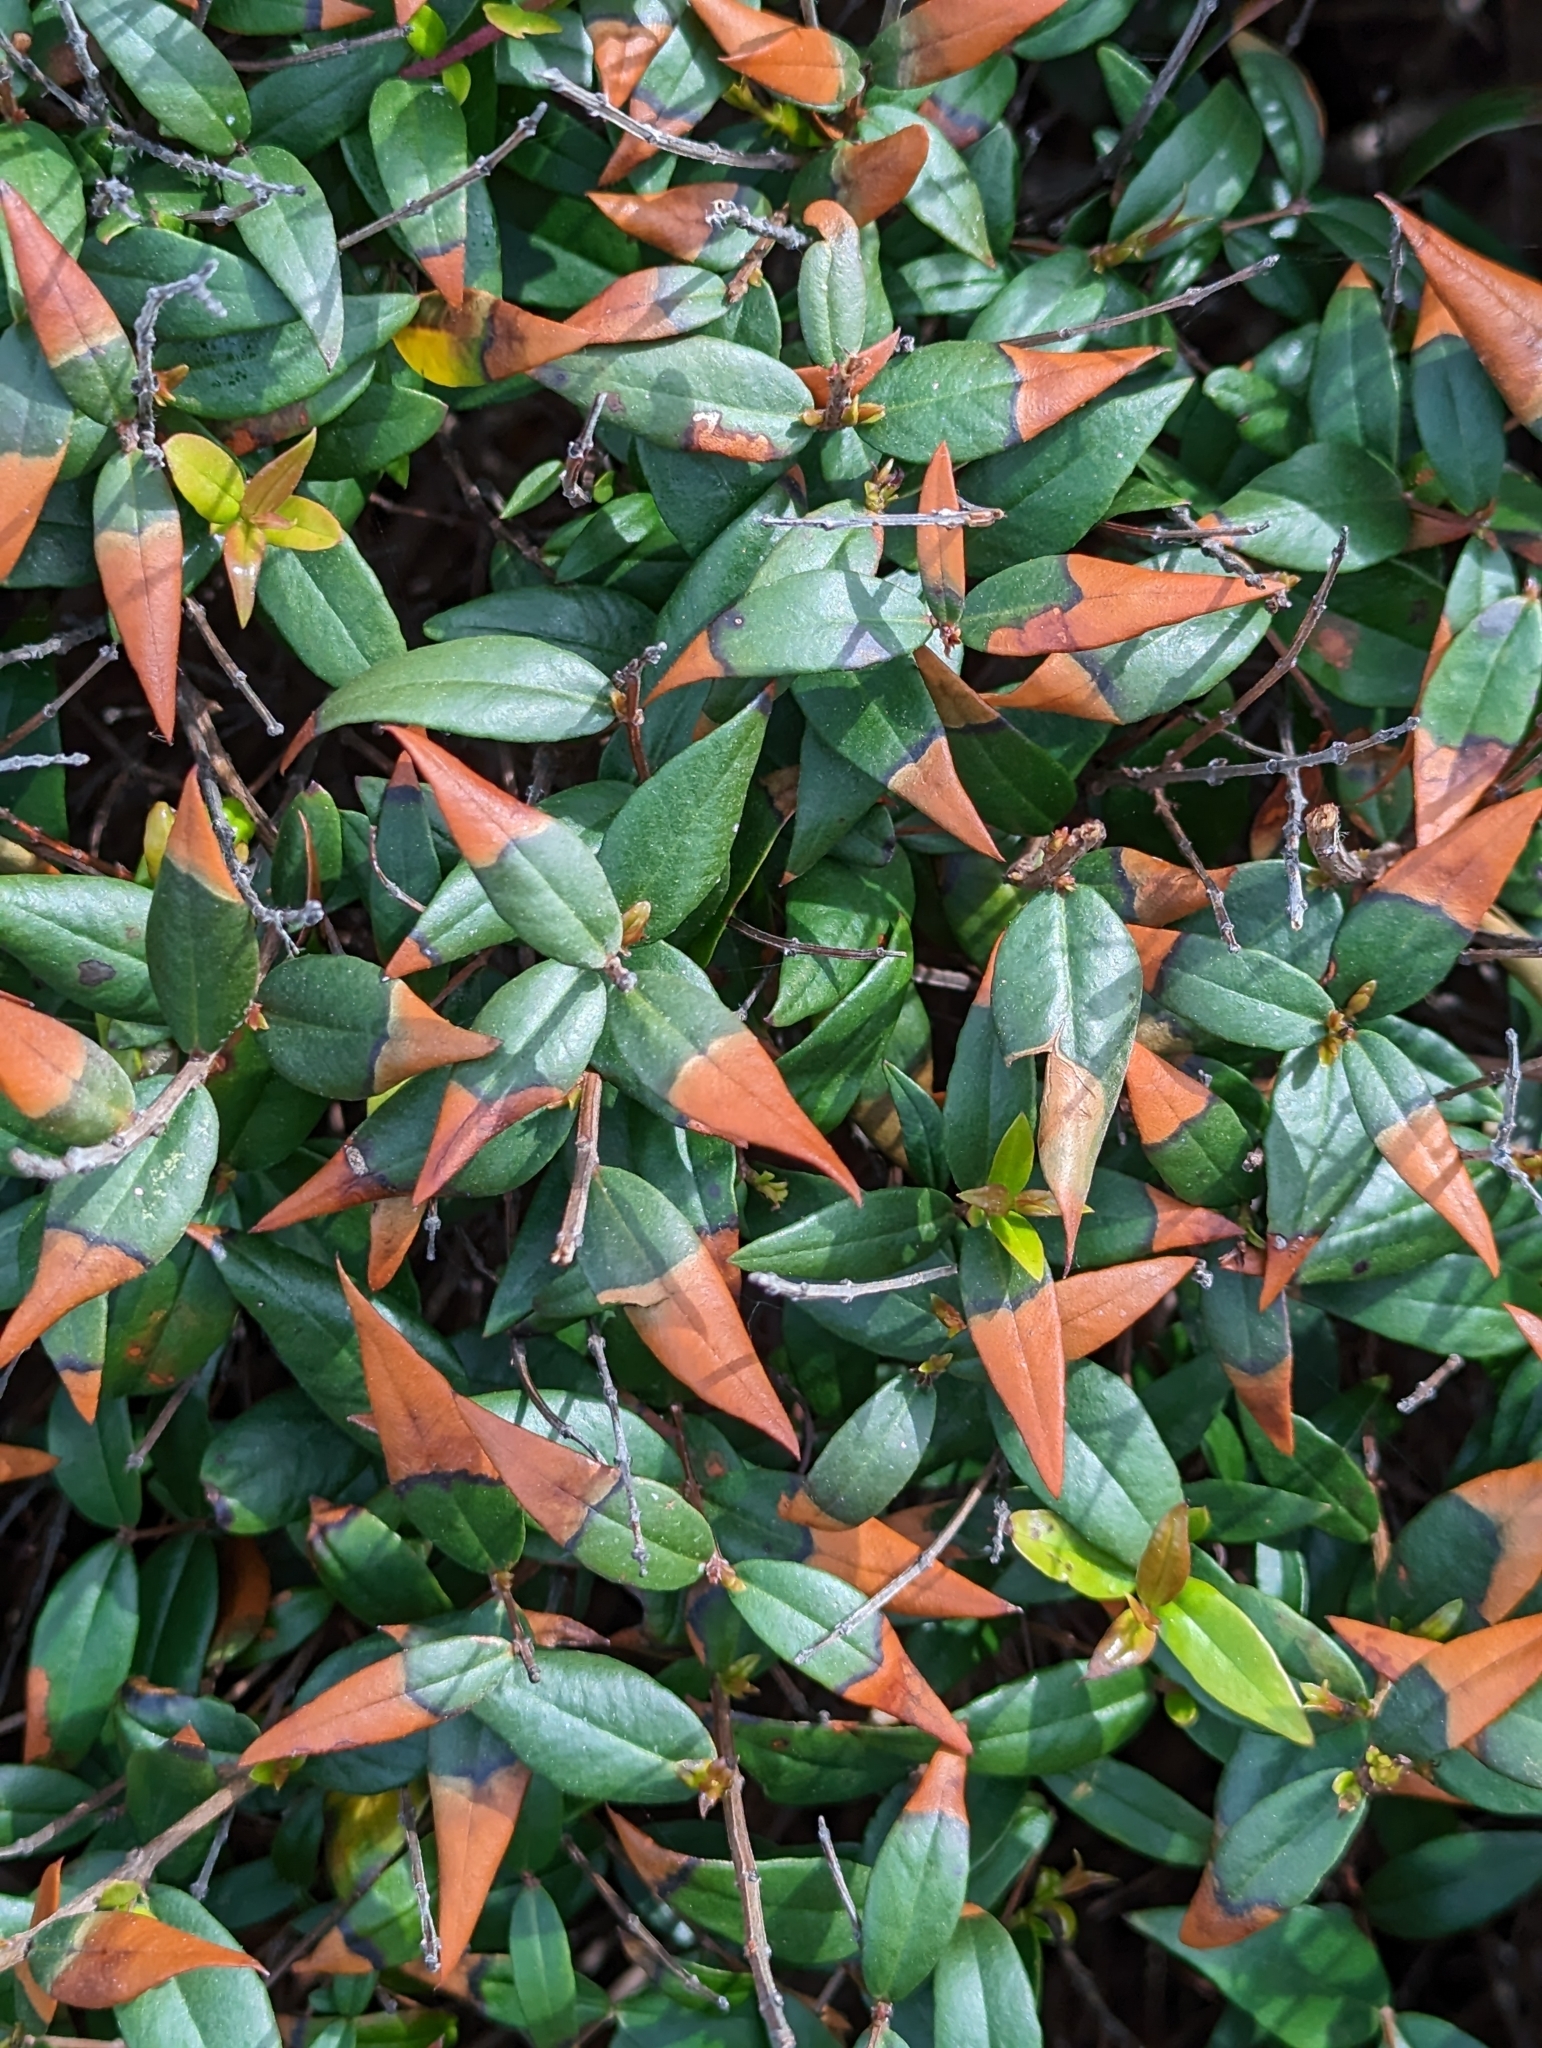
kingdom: Plantae
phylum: Tracheophyta
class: Magnoliopsida
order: Myrtales
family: Myrtaceae
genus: Myrtus
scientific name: Myrtus communis
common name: Myrtle
